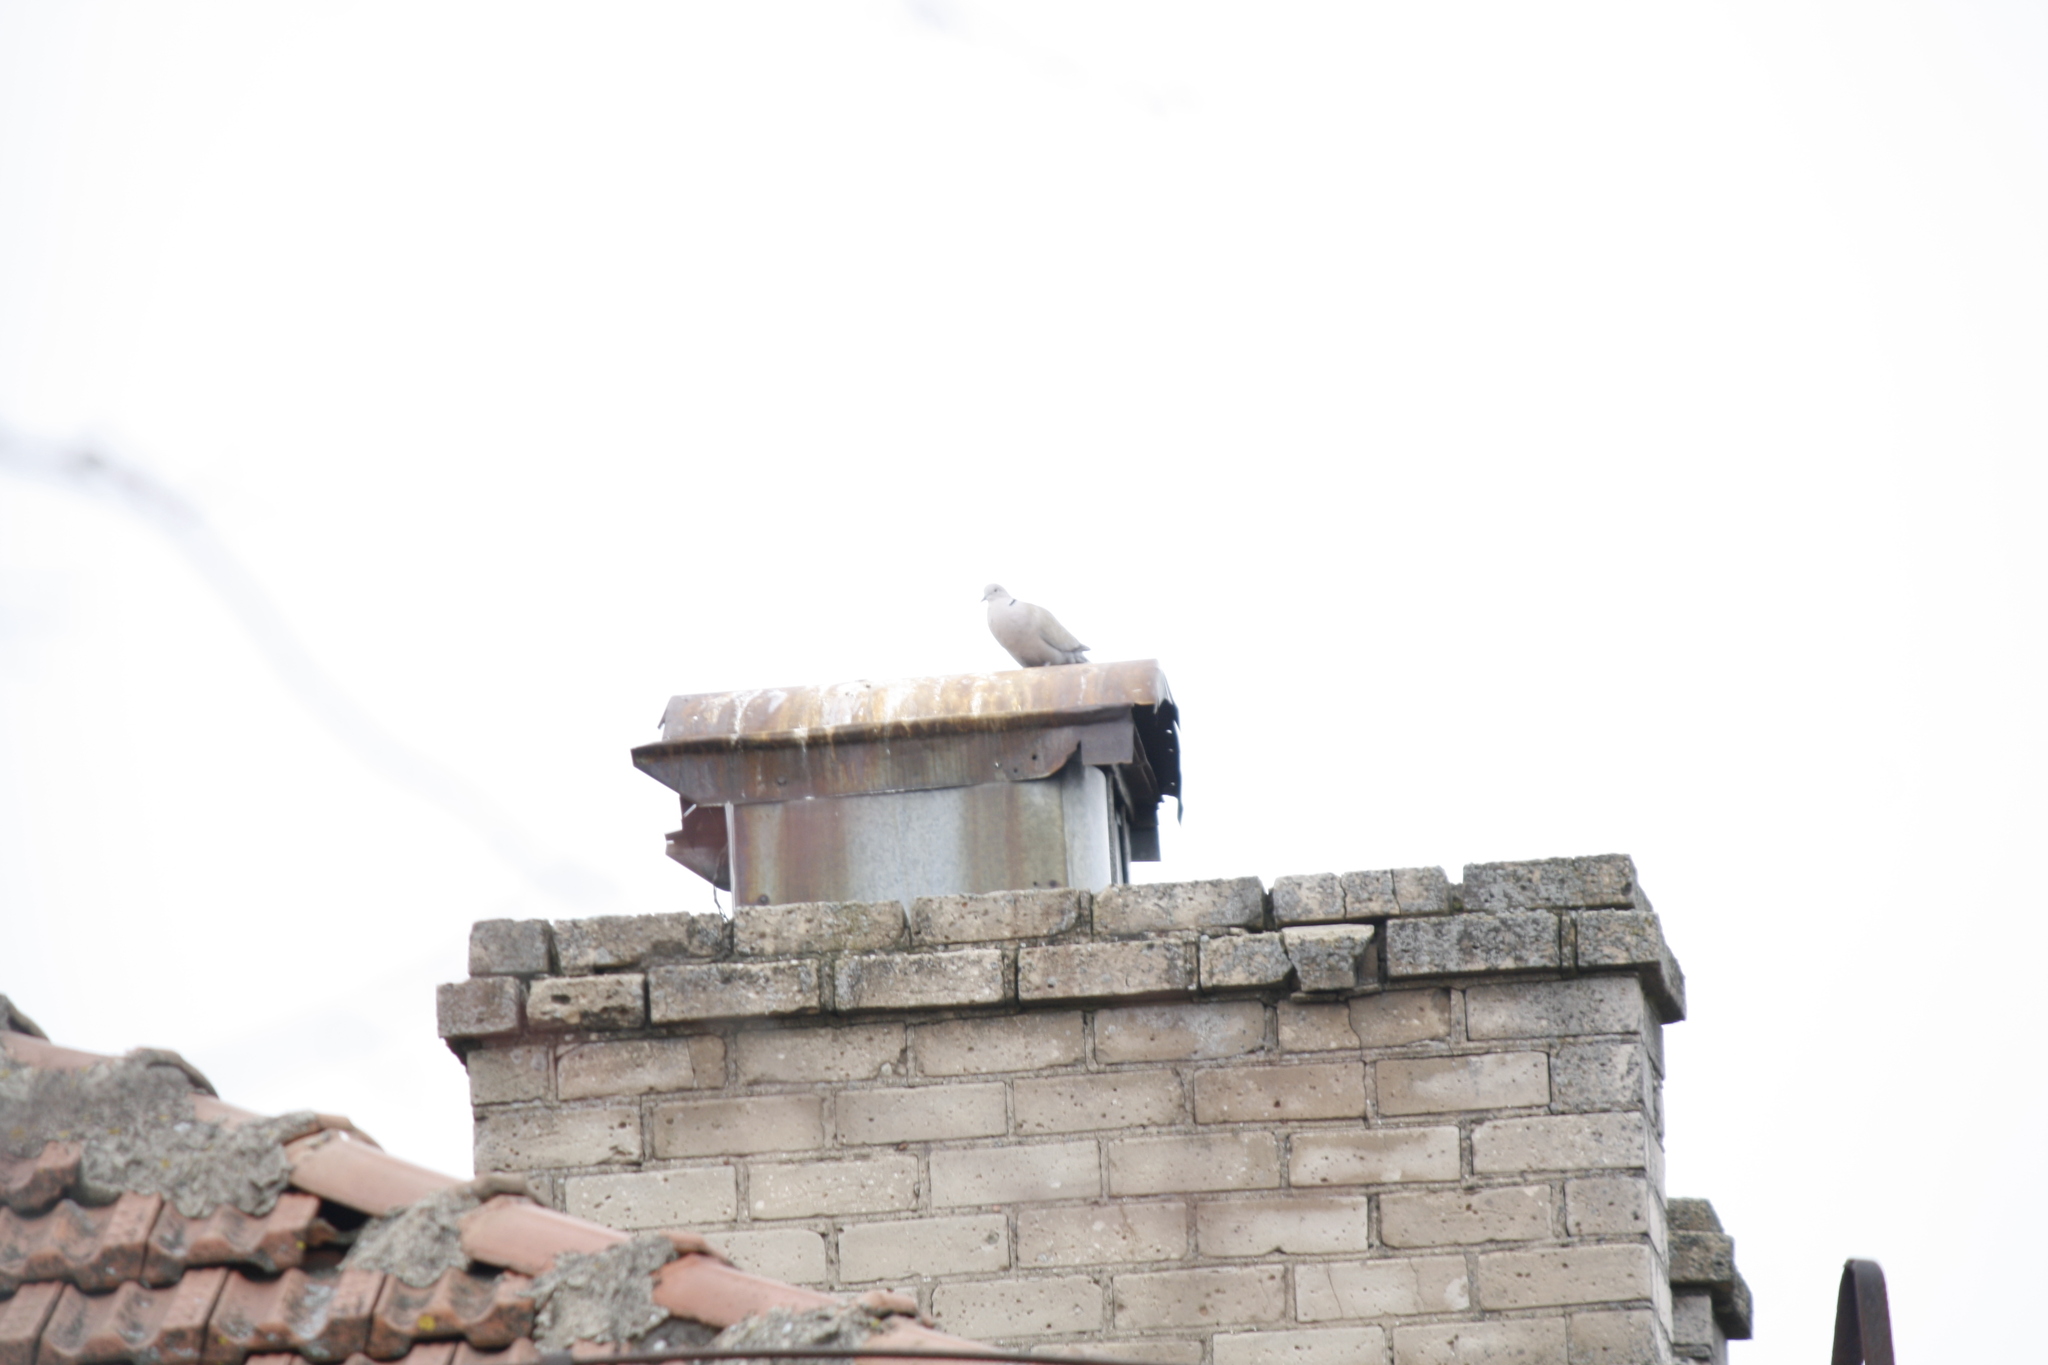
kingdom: Animalia
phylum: Chordata
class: Aves
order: Columbiformes
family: Columbidae
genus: Streptopelia
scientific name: Streptopelia decaocto
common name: Eurasian collared dove
